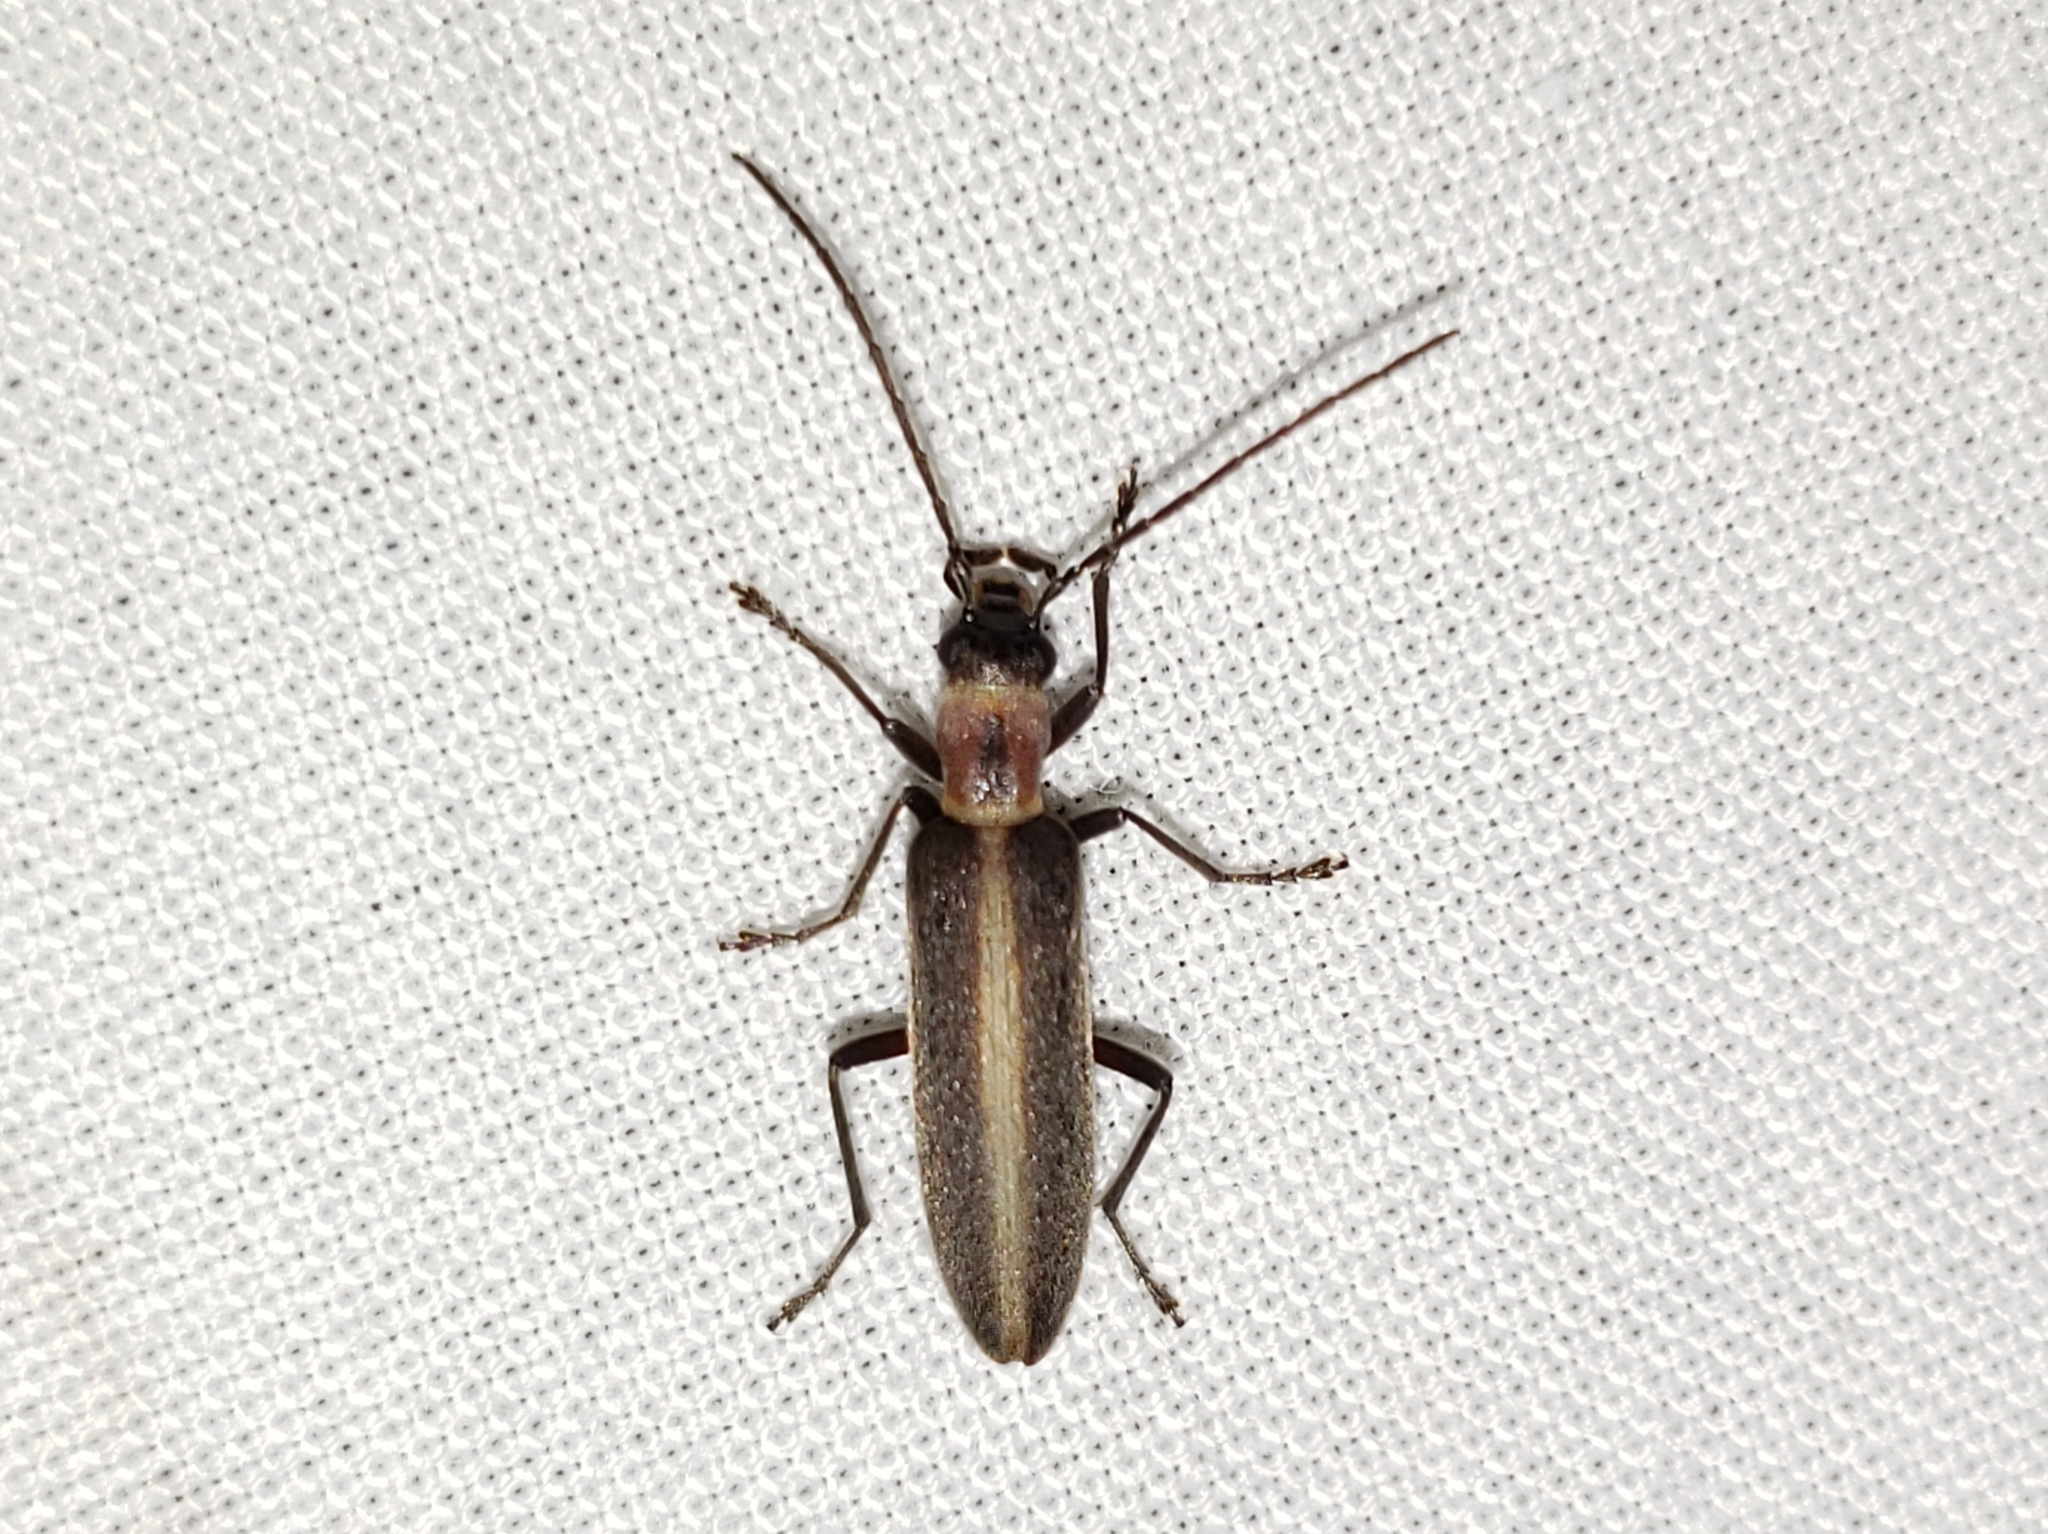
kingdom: Animalia
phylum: Arthropoda
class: Insecta
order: Coleoptera
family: Oedemeridae
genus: Oxycopis
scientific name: Oxycopis mimetica
